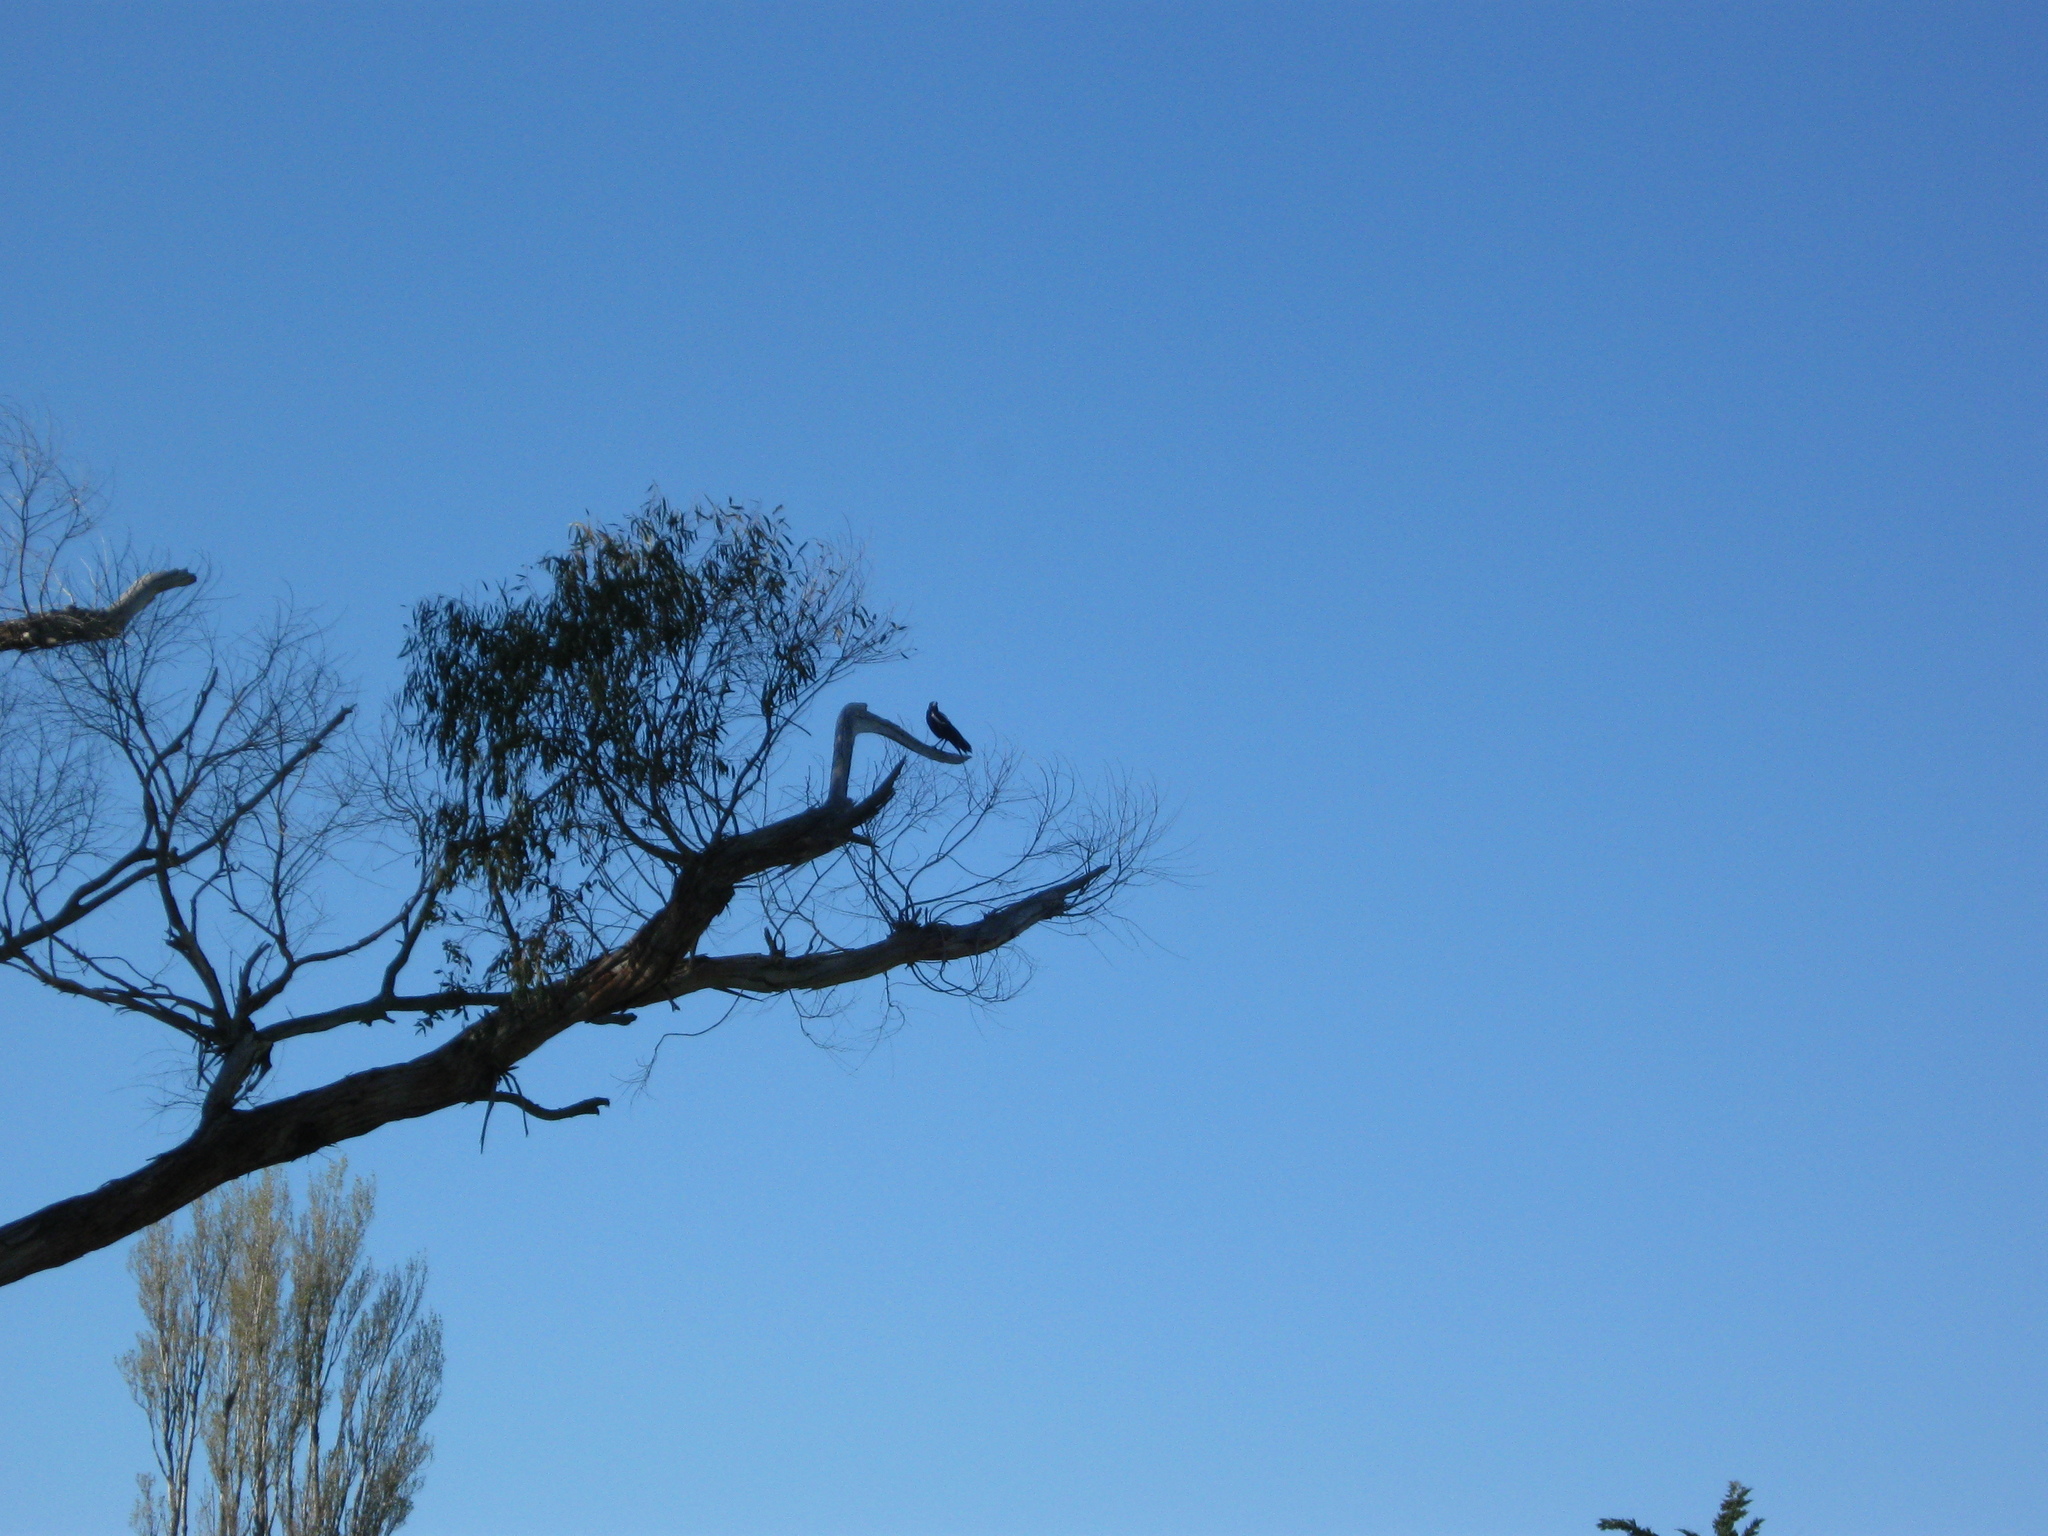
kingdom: Animalia
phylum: Chordata
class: Aves
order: Passeriformes
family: Cracticidae
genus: Gymnorhina
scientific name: Gymnorhina tibicen
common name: Australian magpie
